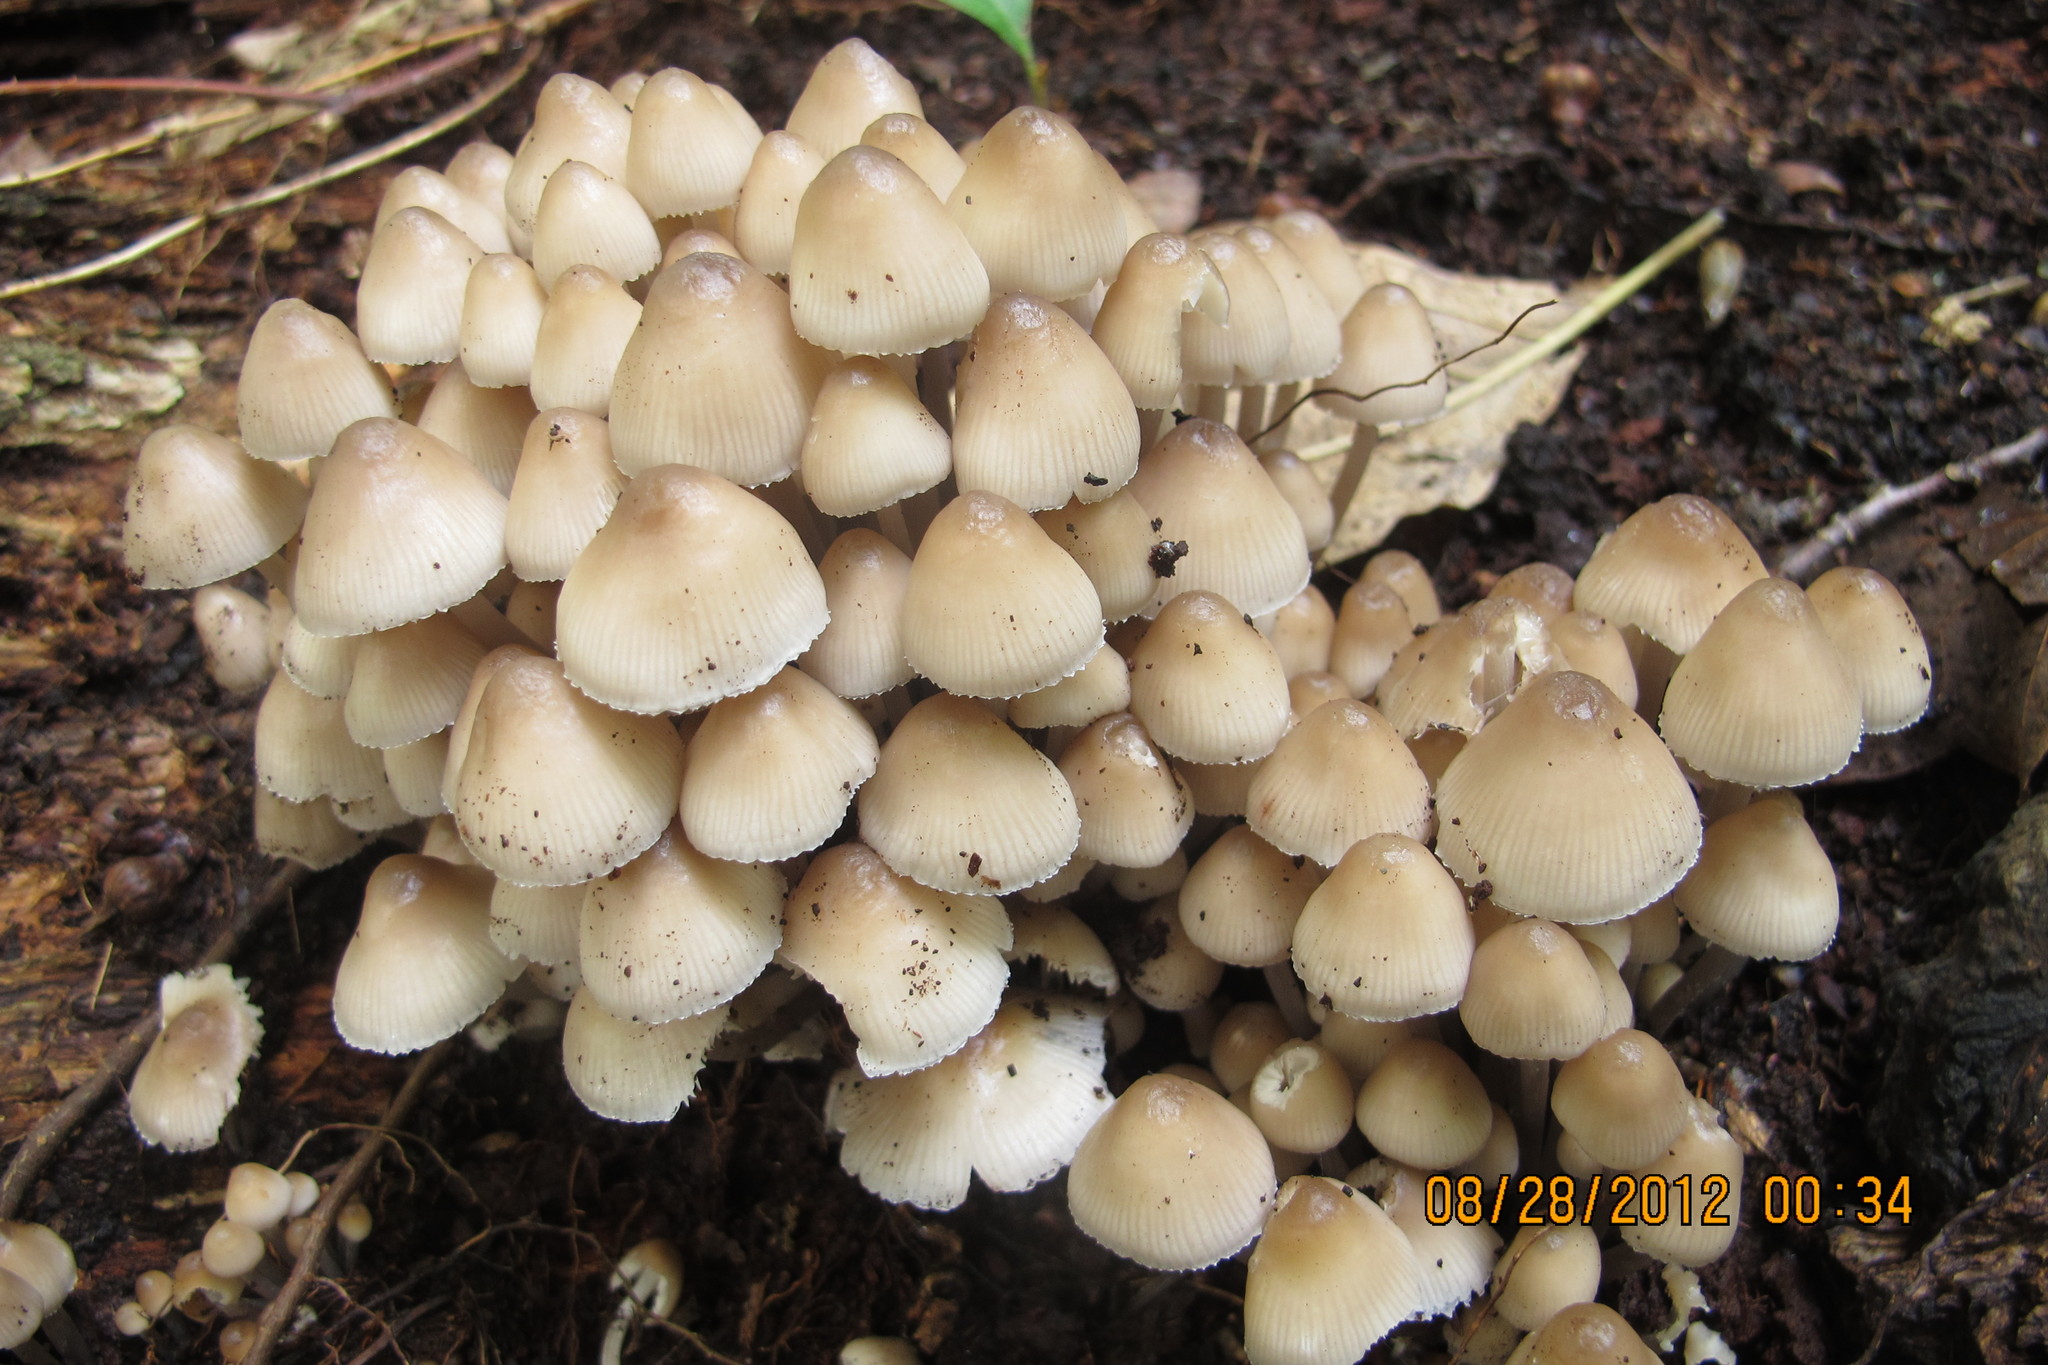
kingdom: Fungi
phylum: Basidiomycota
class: Agaricomycetes
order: Agaricales
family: Mycenaceae
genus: Mycena
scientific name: Mycena inclinata
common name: Clustered bonnet
